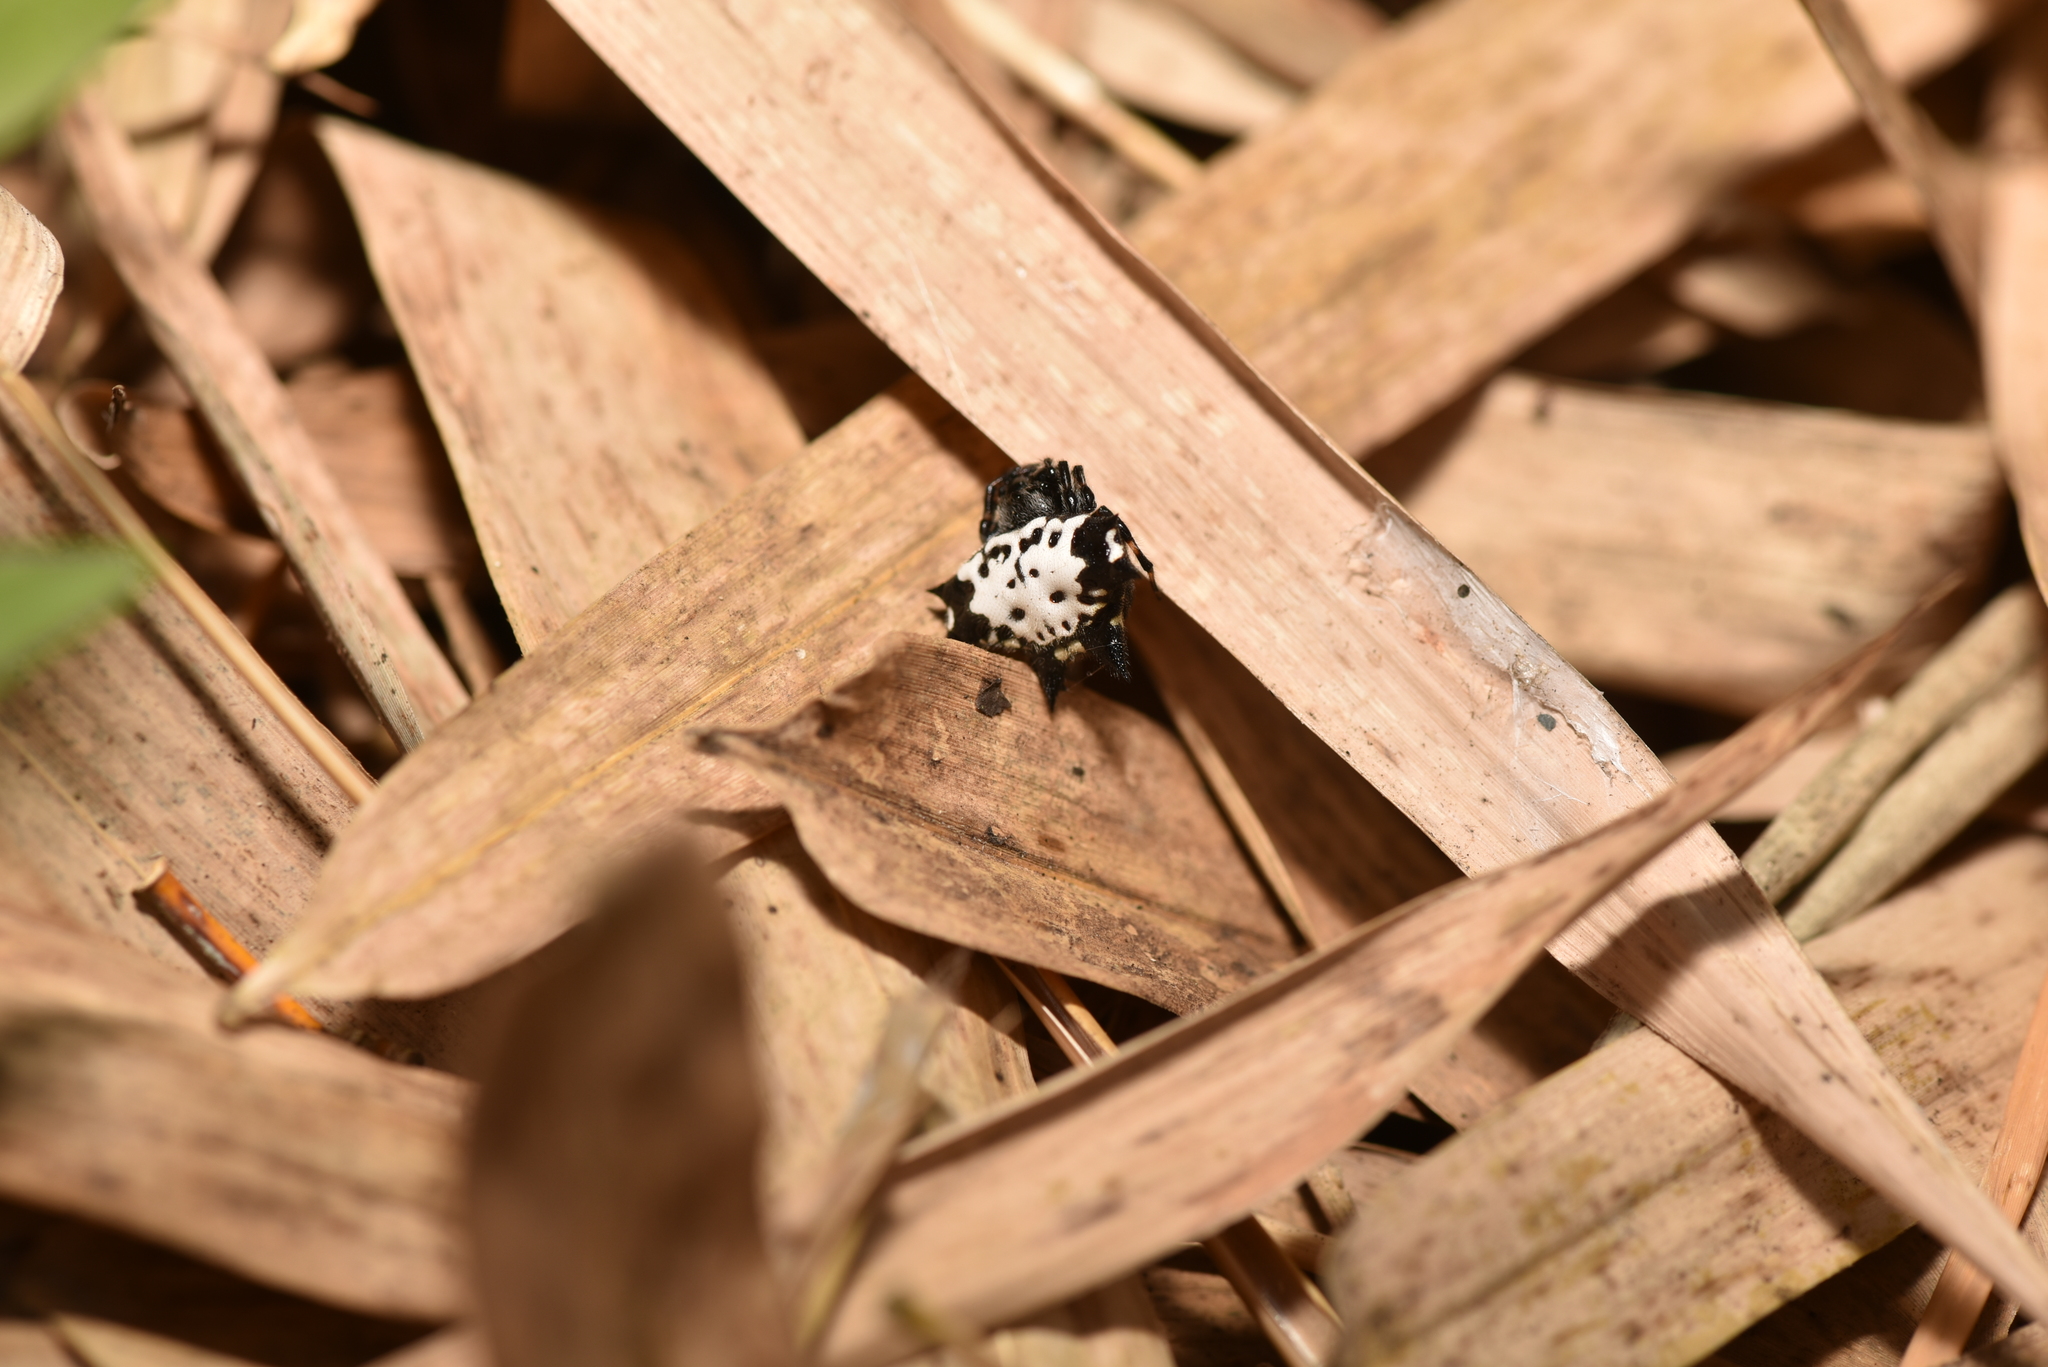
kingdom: Animalia
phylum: Arthropoda
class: Arachnida
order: Araneae
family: Araneidae
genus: Gasteracantha
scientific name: Gasteracantha kuhli
